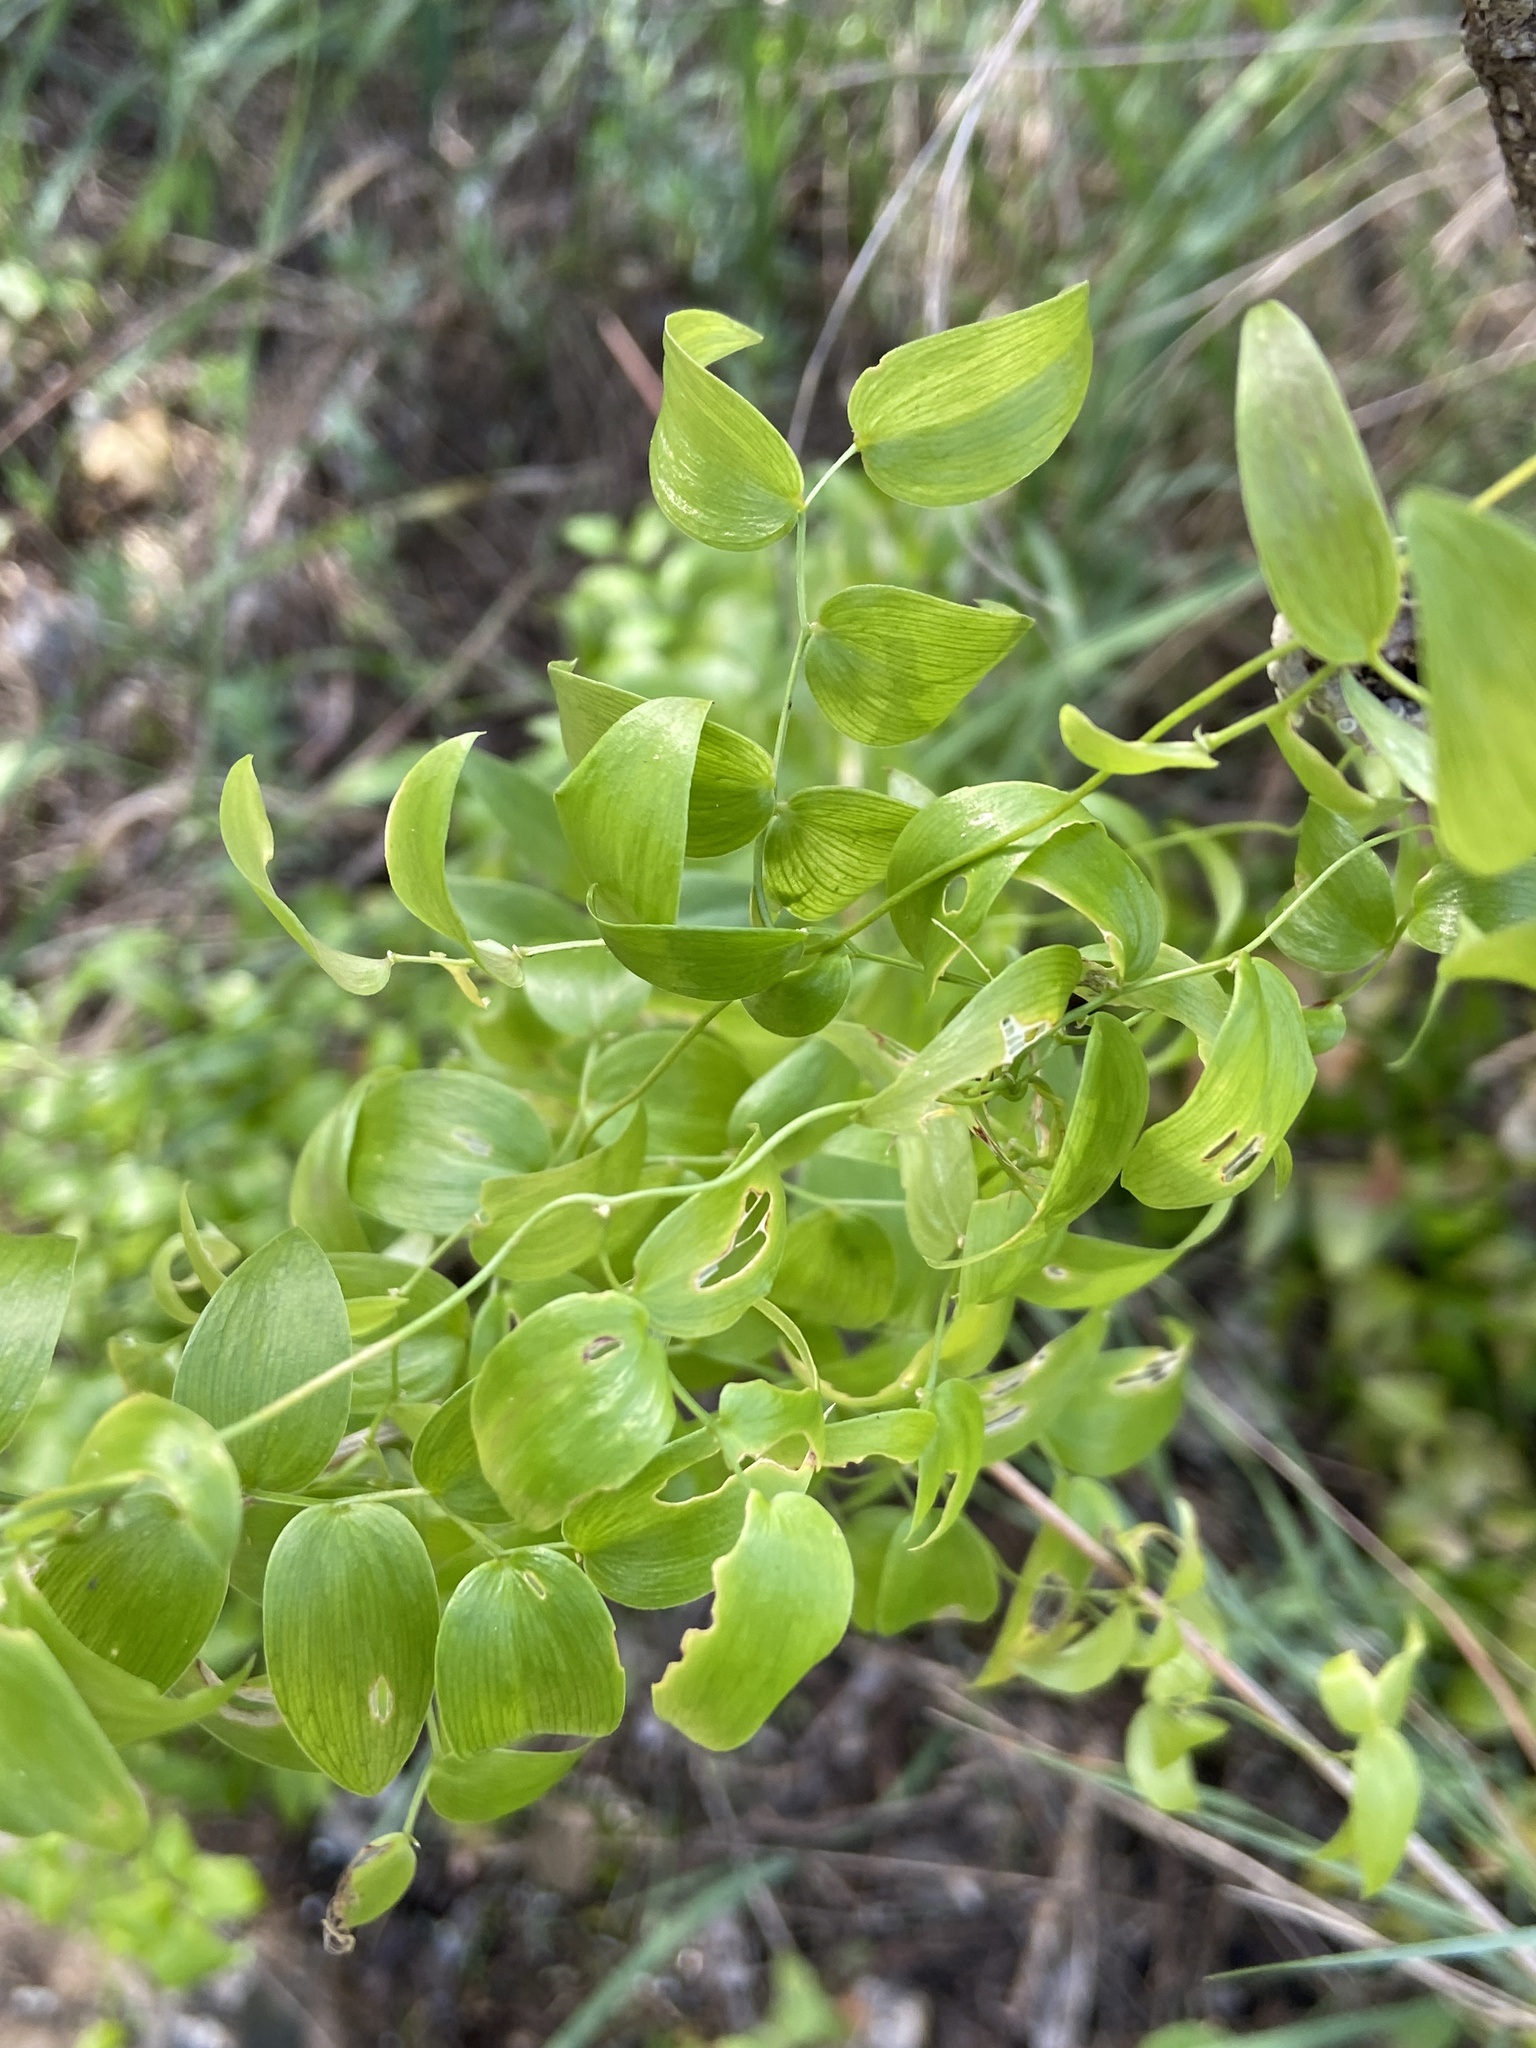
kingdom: Plantae
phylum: Tracheophyta
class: Liliopsida
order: Asparagales
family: Asparagaceae
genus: Asparagus
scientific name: Asparagus asparagoides
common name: African asparagus fern
